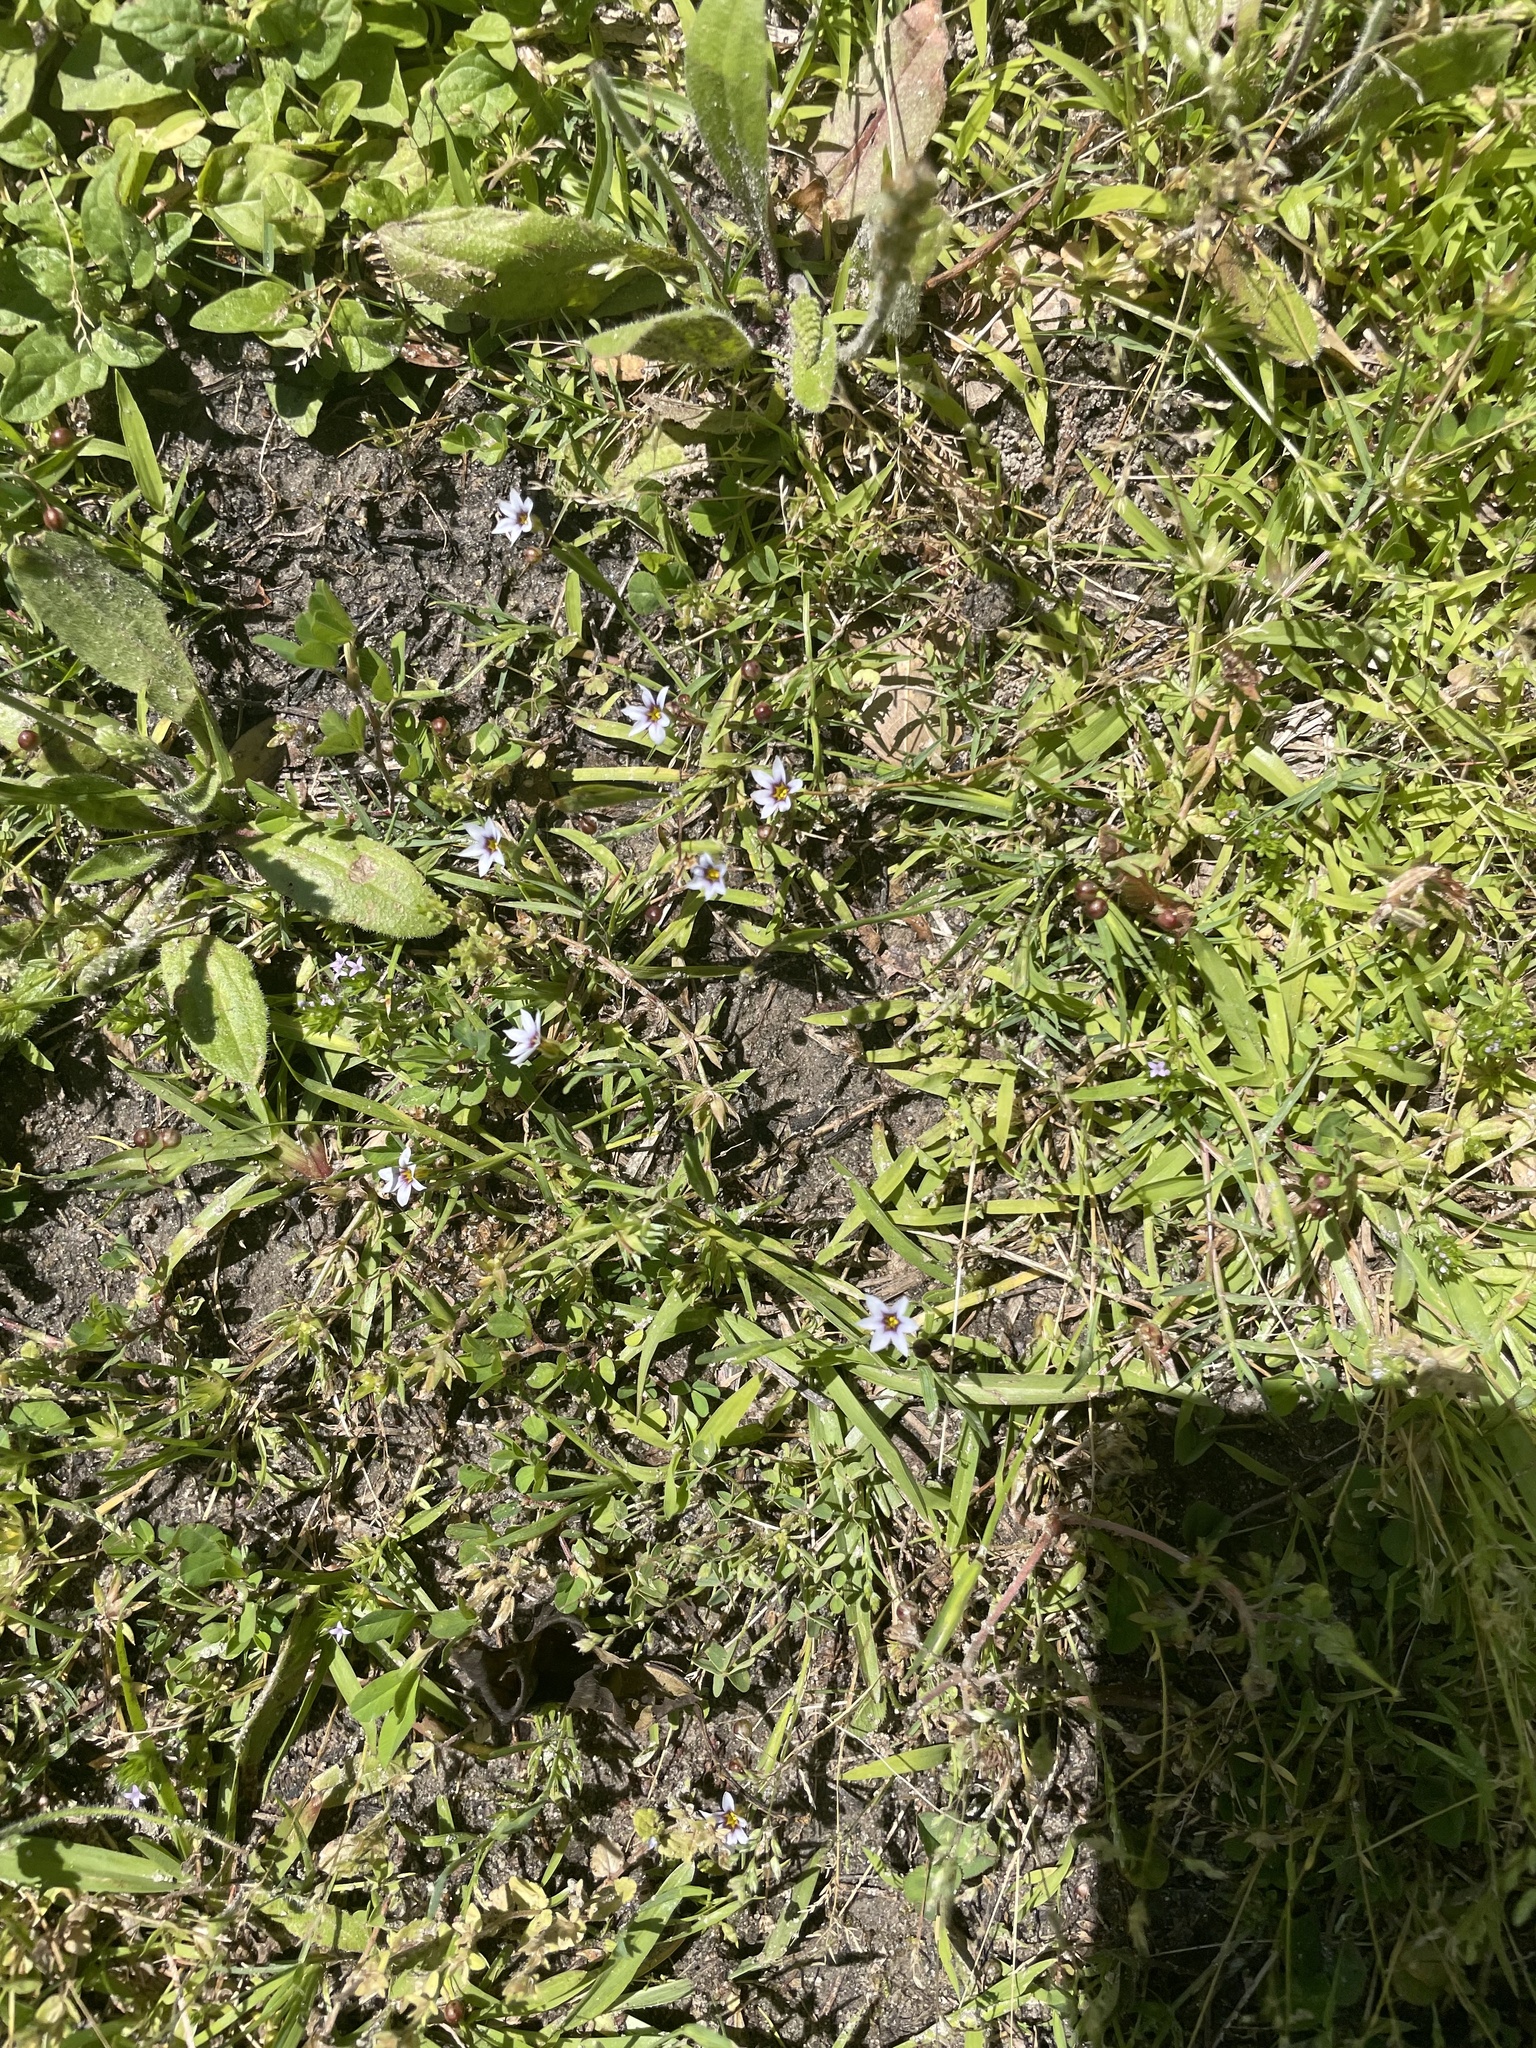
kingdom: Plantae
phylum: Tracheophyta
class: Liliopsida
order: Asparagales
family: Iridaceae
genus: Sisyrinchium
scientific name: Sisyrinchium micranthum
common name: Bermuda pigroot
